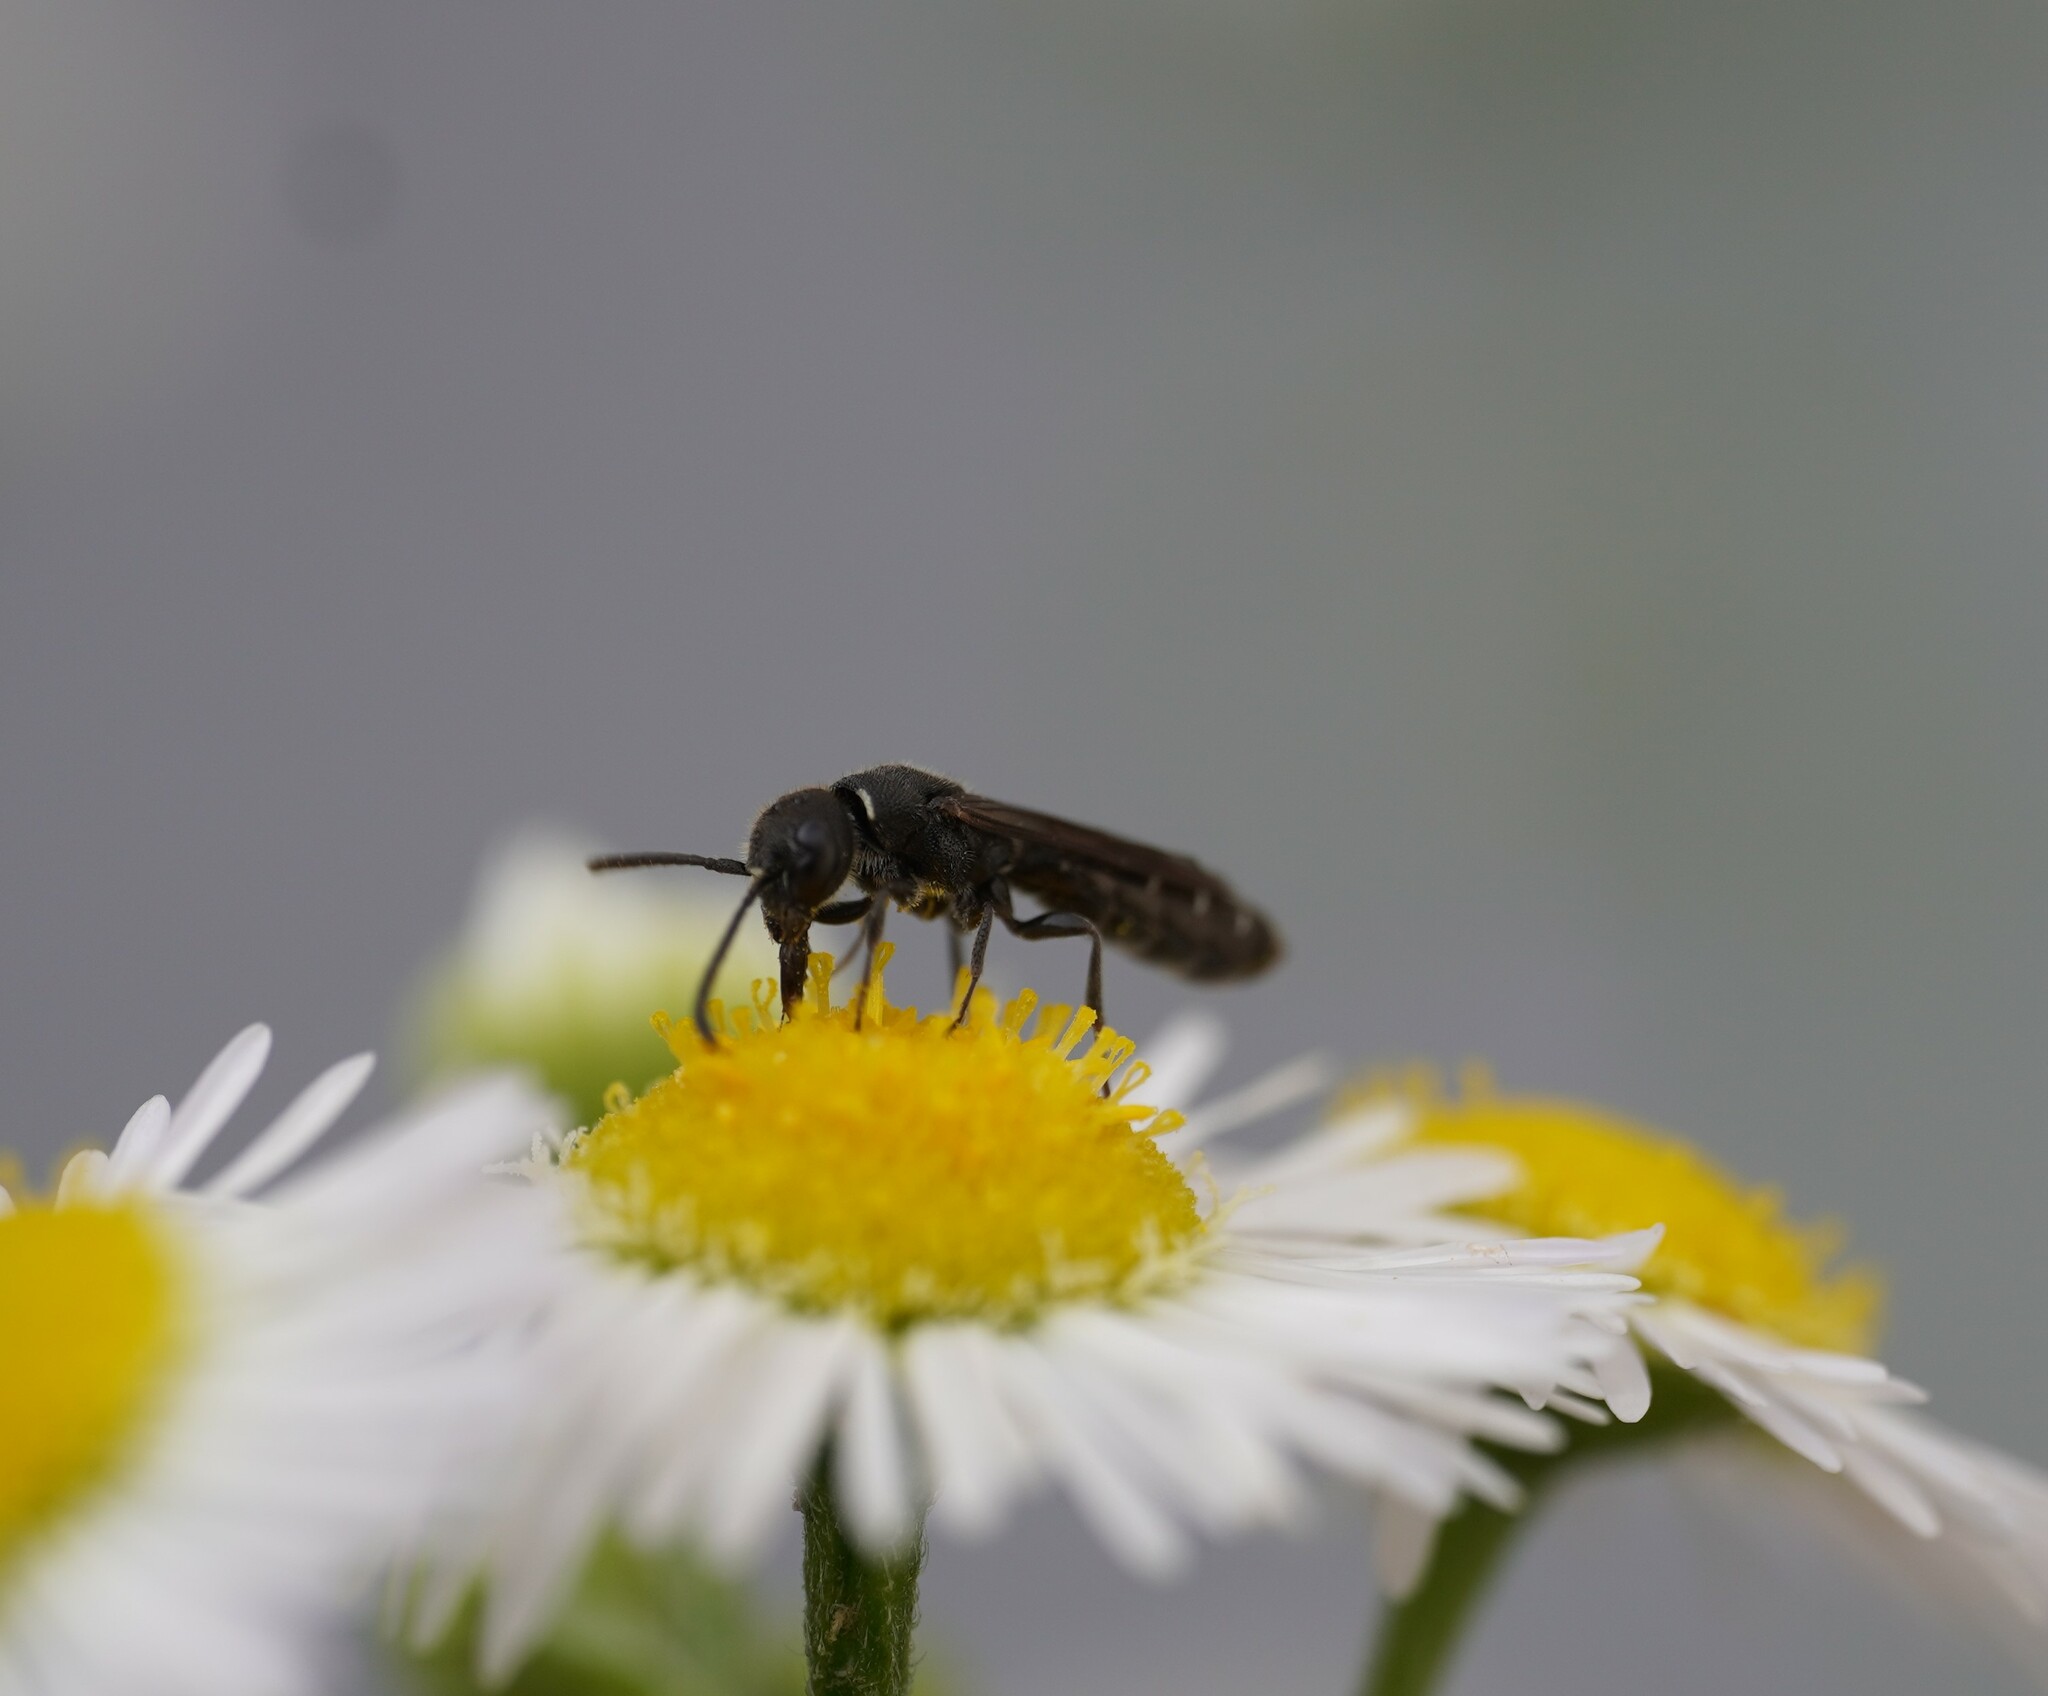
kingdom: Animalia
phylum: Arthropoda
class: Insecta
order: Hymenoptera
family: Sapygidae
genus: Sapygina
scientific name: Sapygina decemguttata
